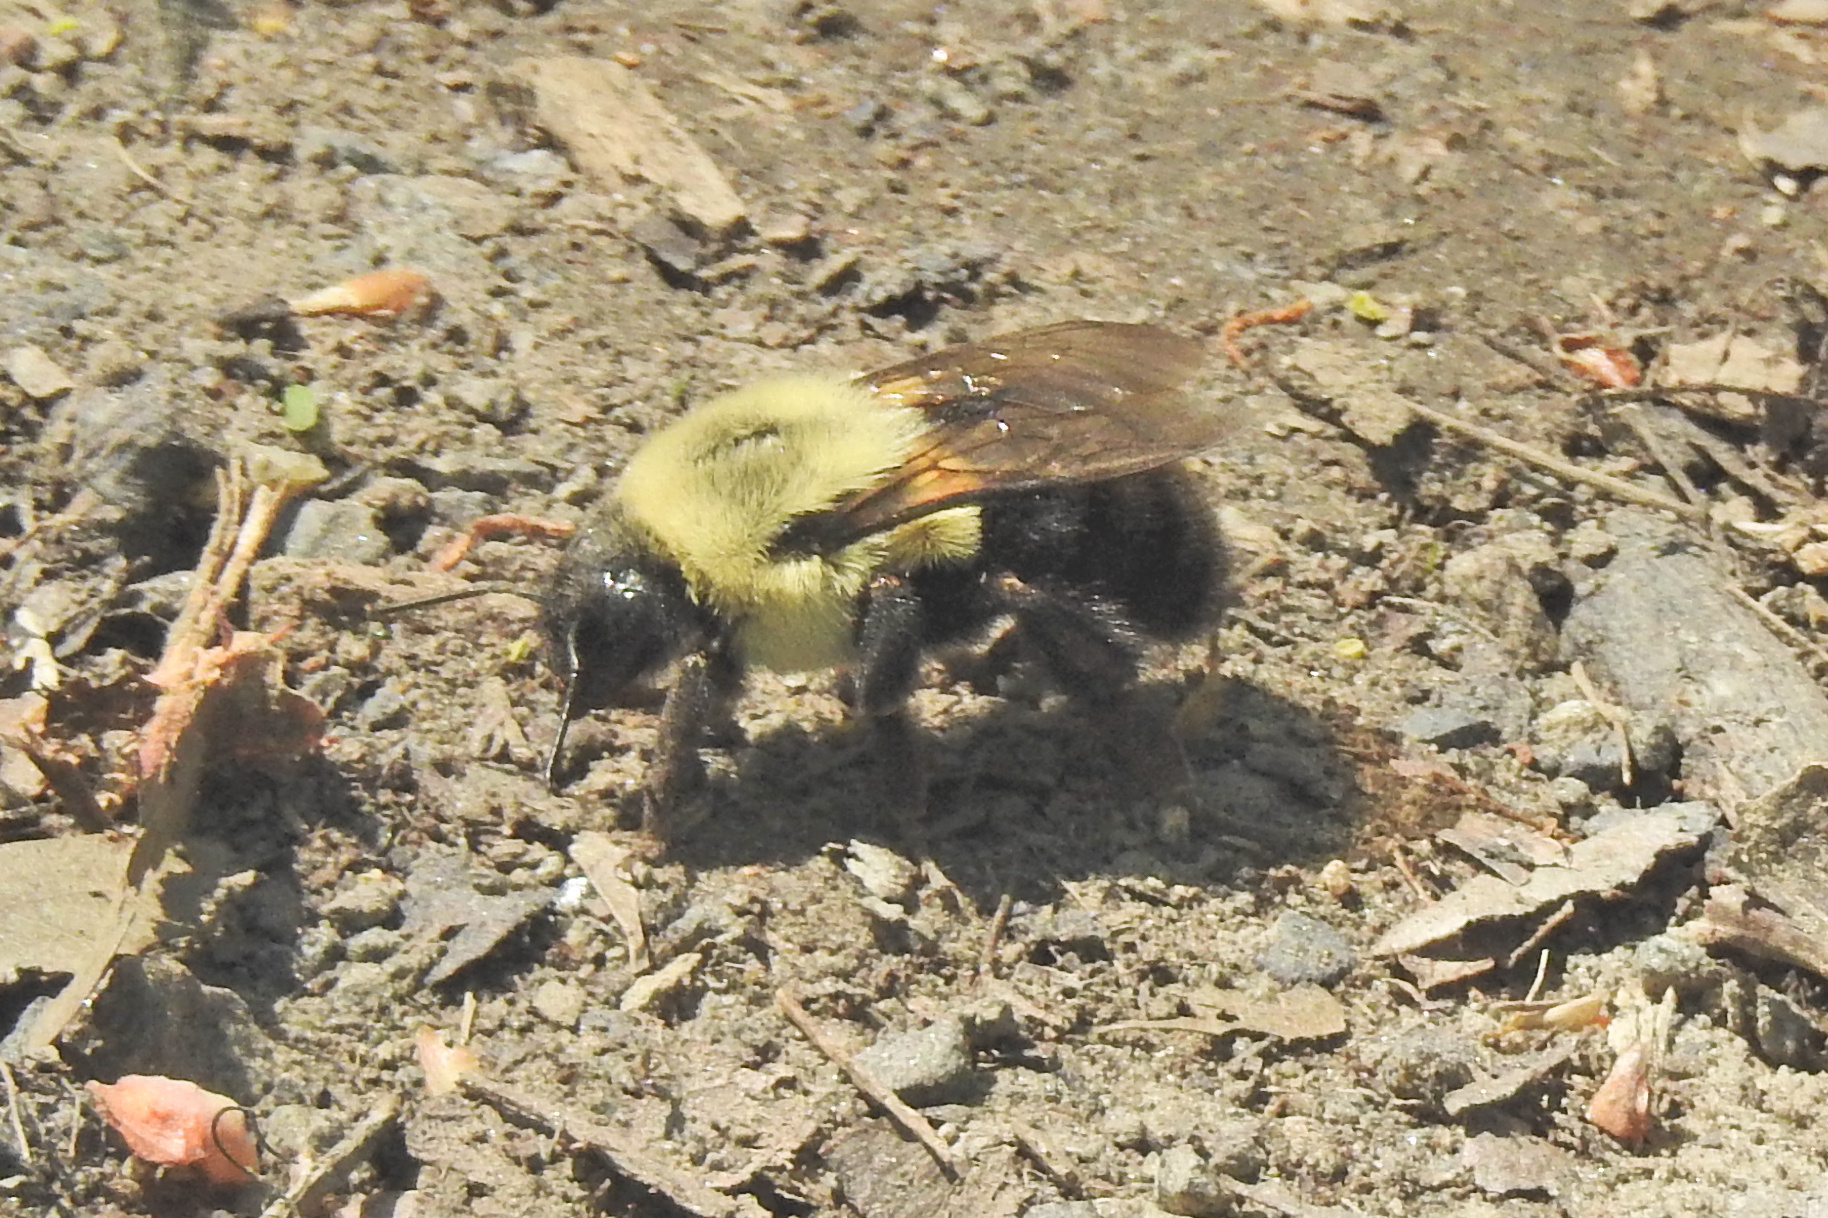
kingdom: Animalia
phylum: Arthropoda
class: Insecta
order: Hymenoptera
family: Apidae
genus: Bombus
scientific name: Bombus impatiens
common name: Common eastern bumble bee
